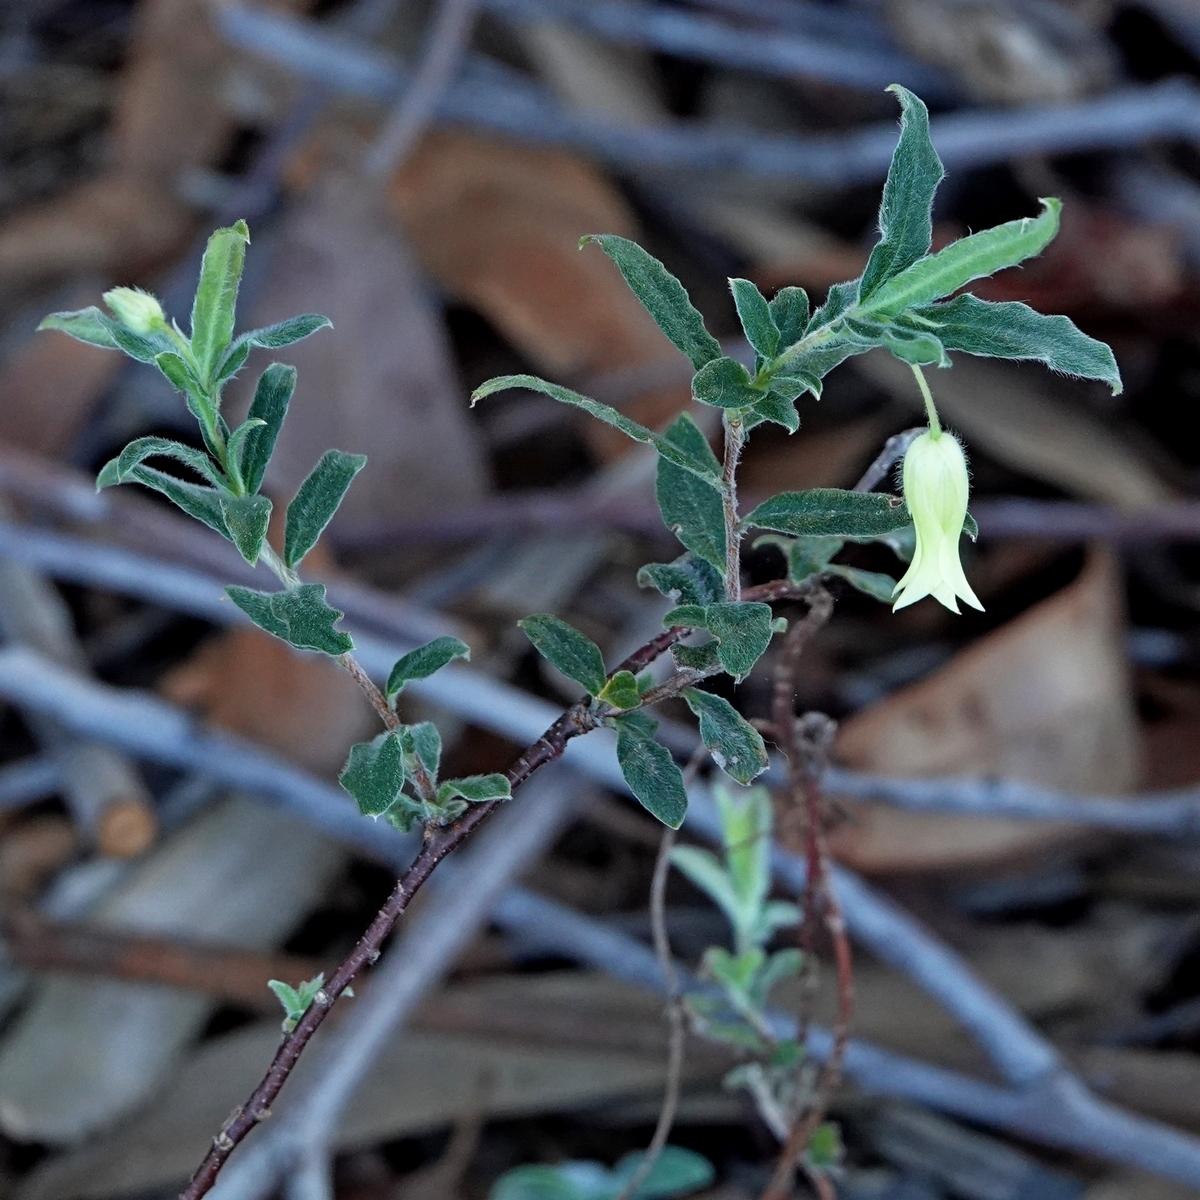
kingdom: Plantae
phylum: Tracheophyta
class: Magnoliopsida
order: Apiales
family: Pittosporaceae
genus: Billardiera
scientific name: Billardiera mutabilis
